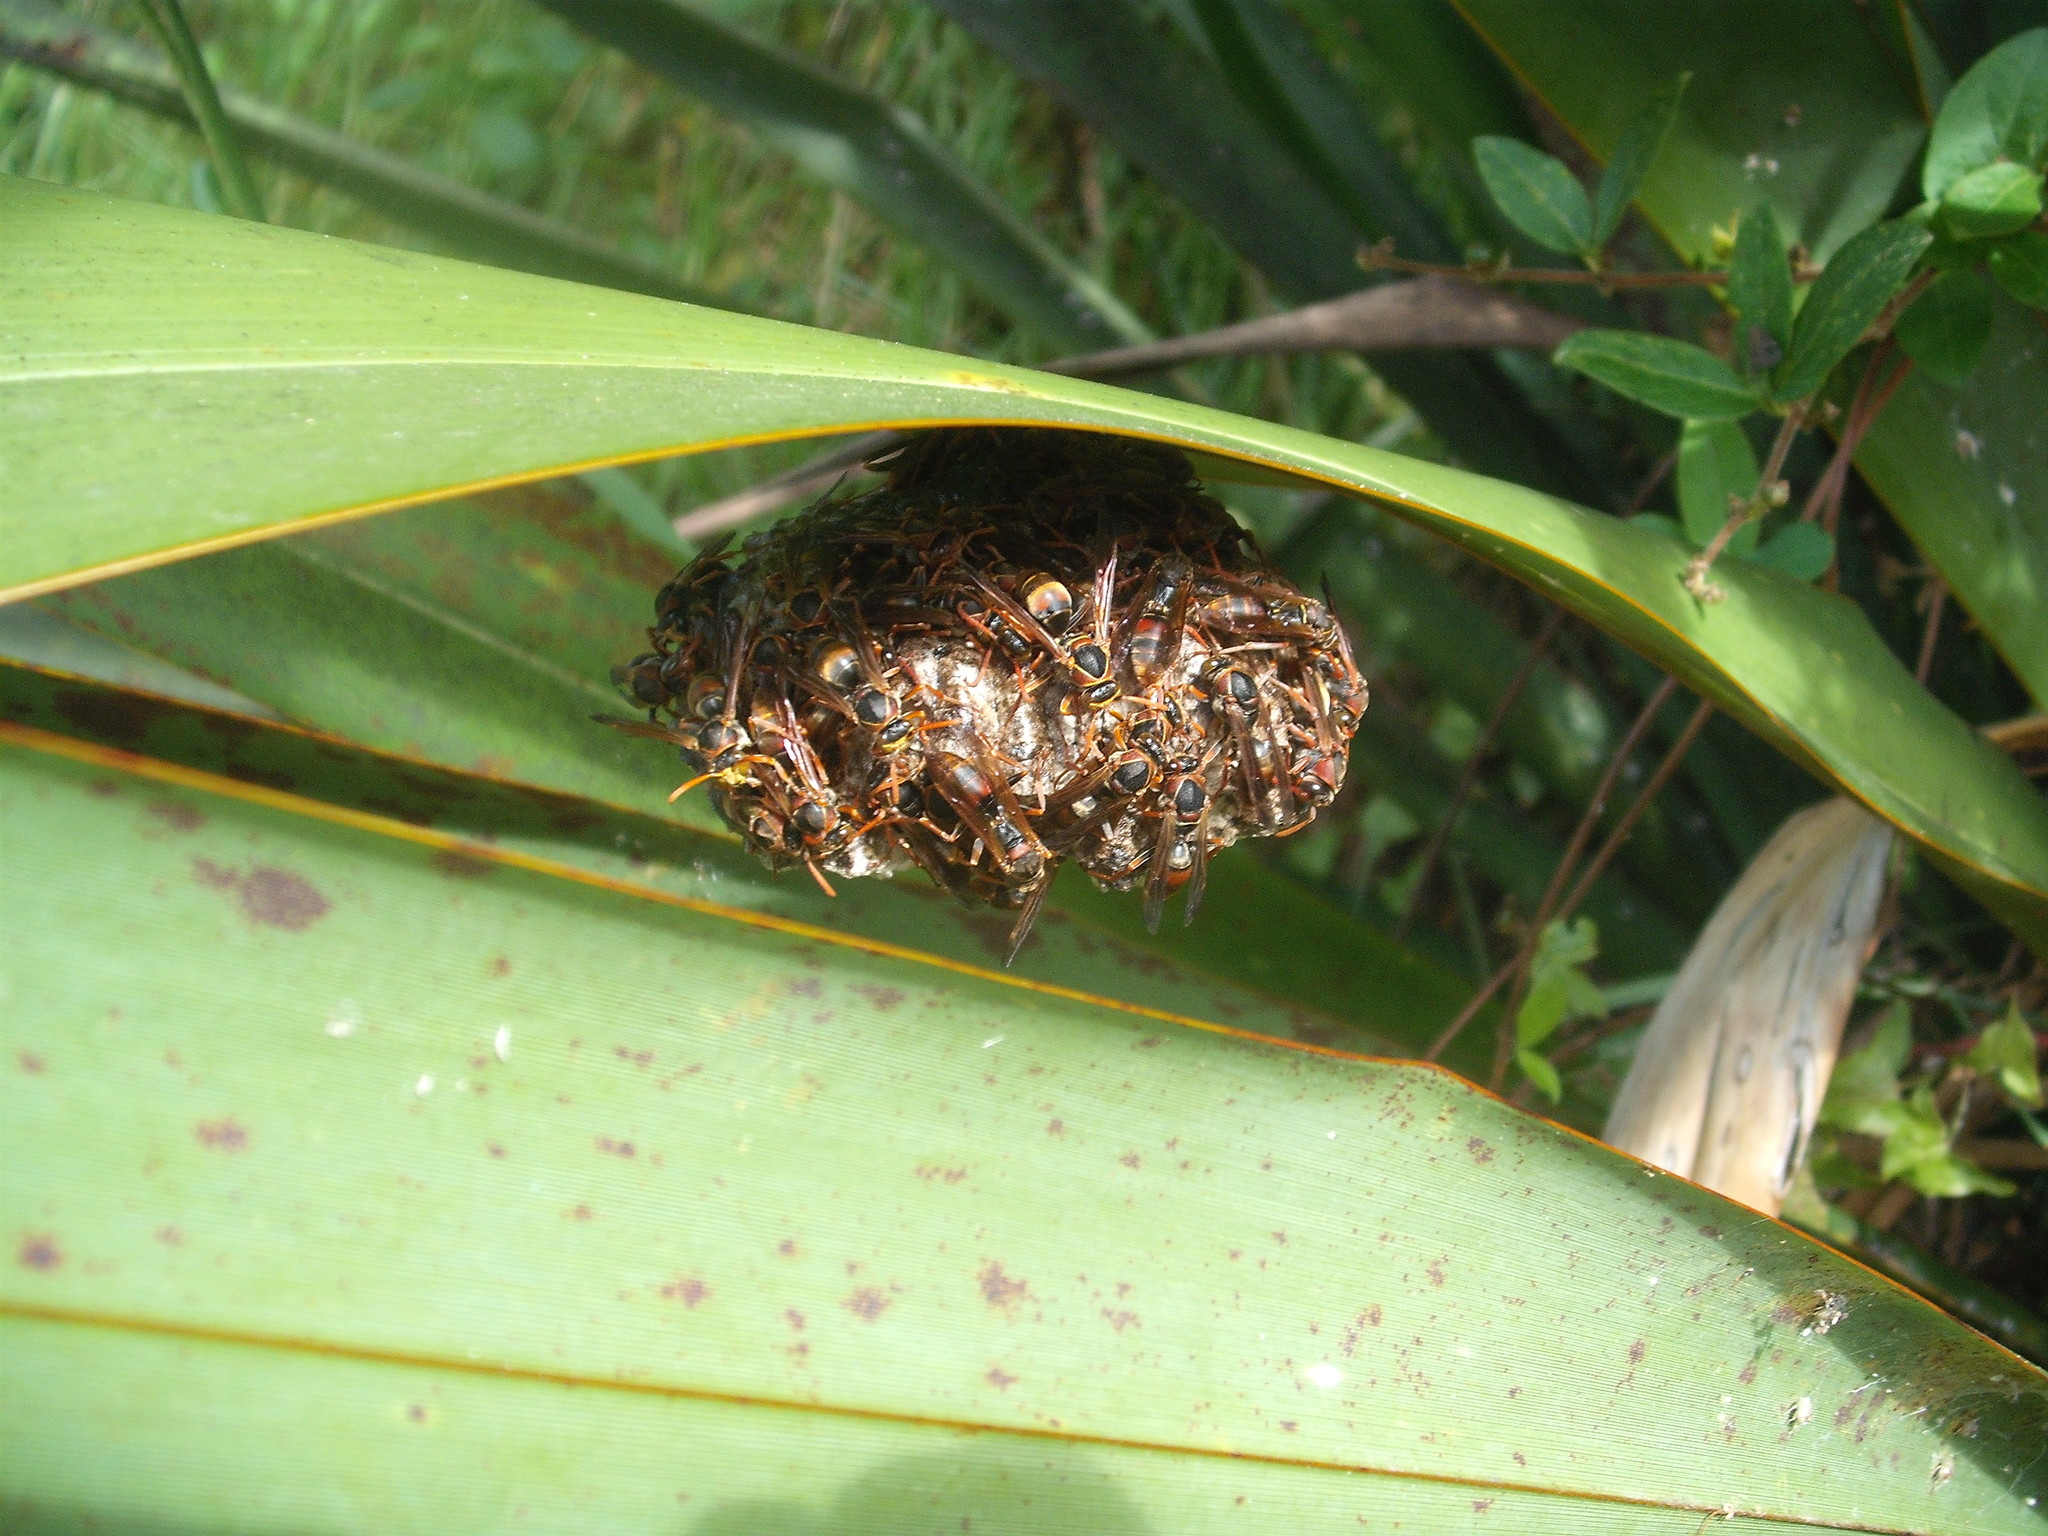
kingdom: Animalia
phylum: Arthropoda
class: Insecta
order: Hymenoptera
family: Eumenidae
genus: Polistes
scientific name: Polistes humilis
